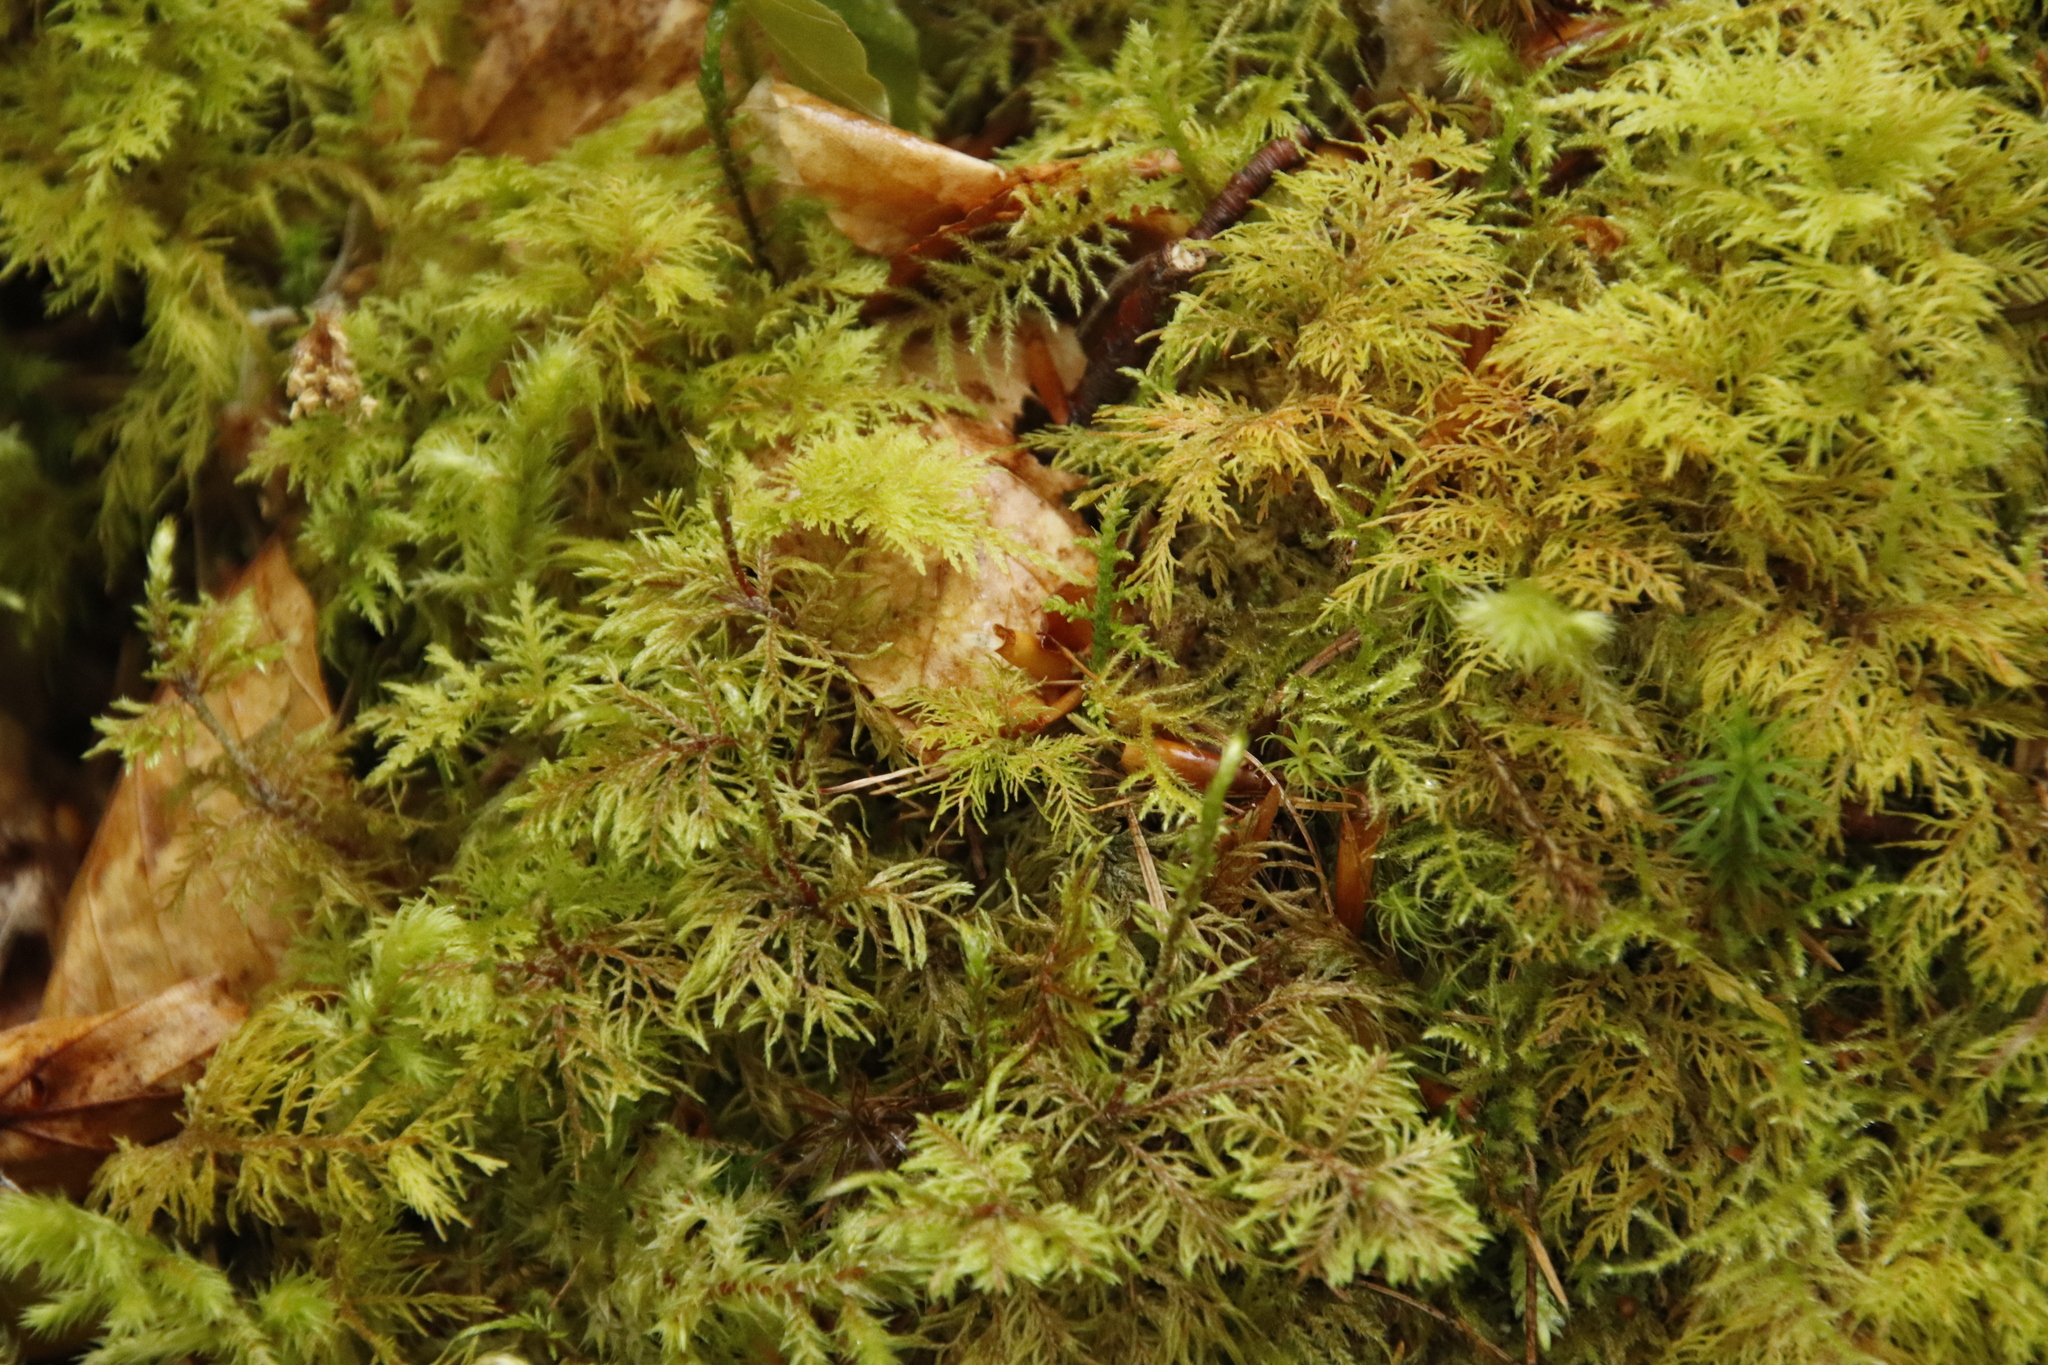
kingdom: Plantae
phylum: Bryophyta
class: Bryopsida
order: Hypnales
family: Hylocomiaceae
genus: Hylocomium
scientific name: Hylocomium splendens
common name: Stairstep moss
